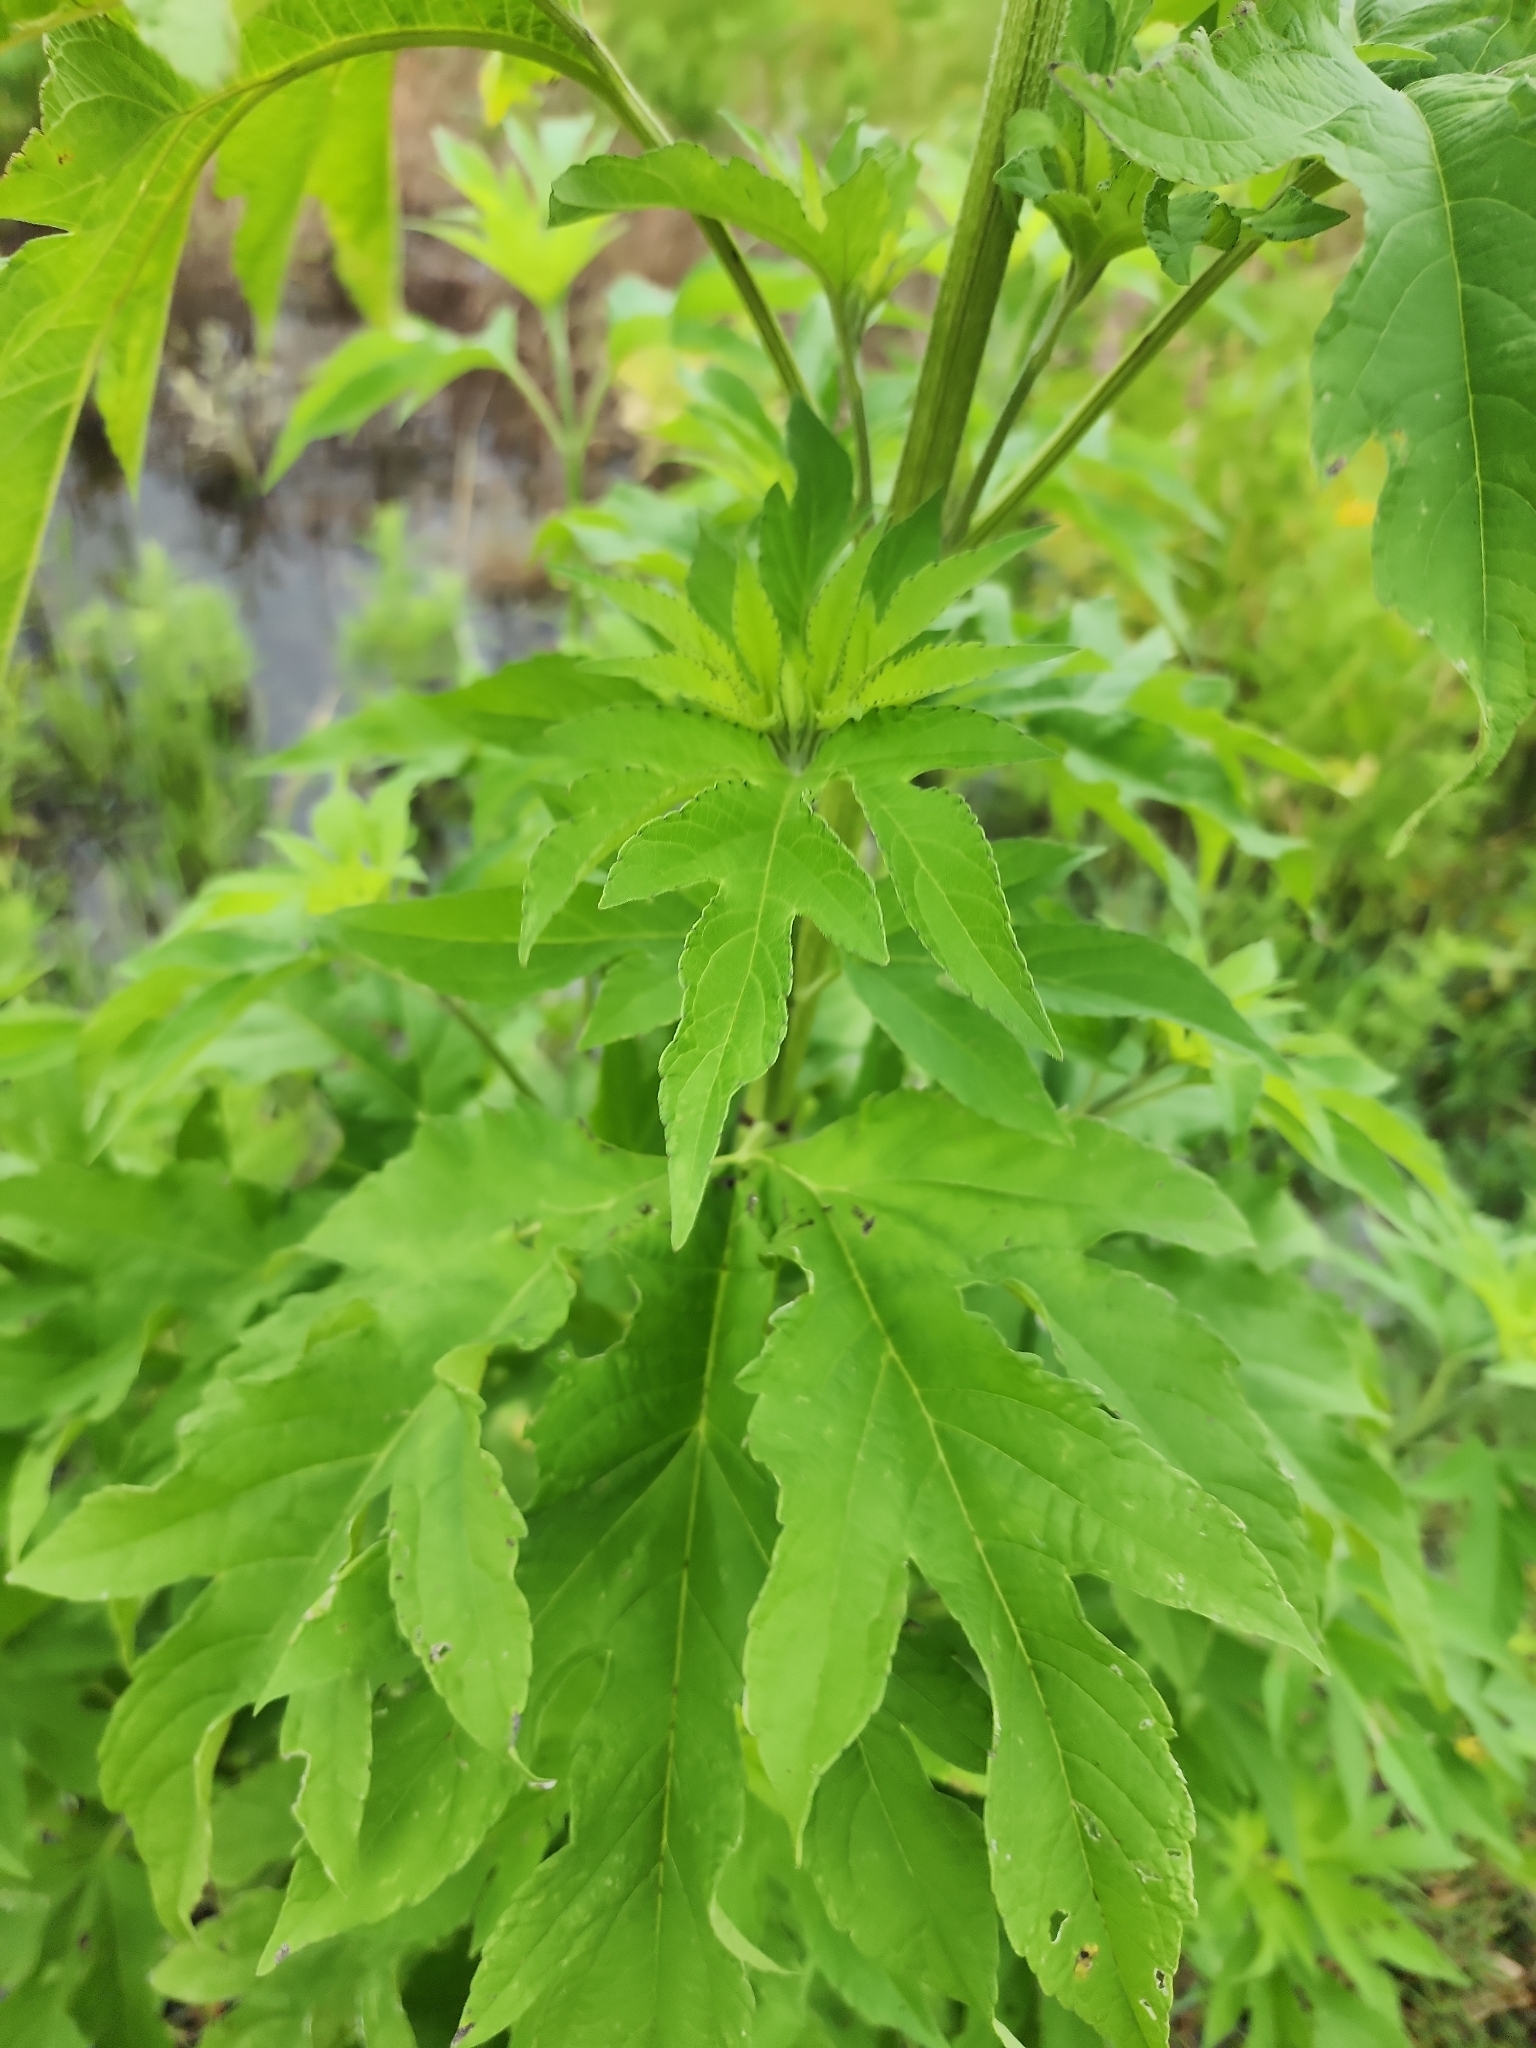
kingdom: Plantae
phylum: Tracheophyta
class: Magnoliopsida
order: Asterales
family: Asteraceae
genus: Ambrosia
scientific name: Ambrosia trifida
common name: Giant ragweed
